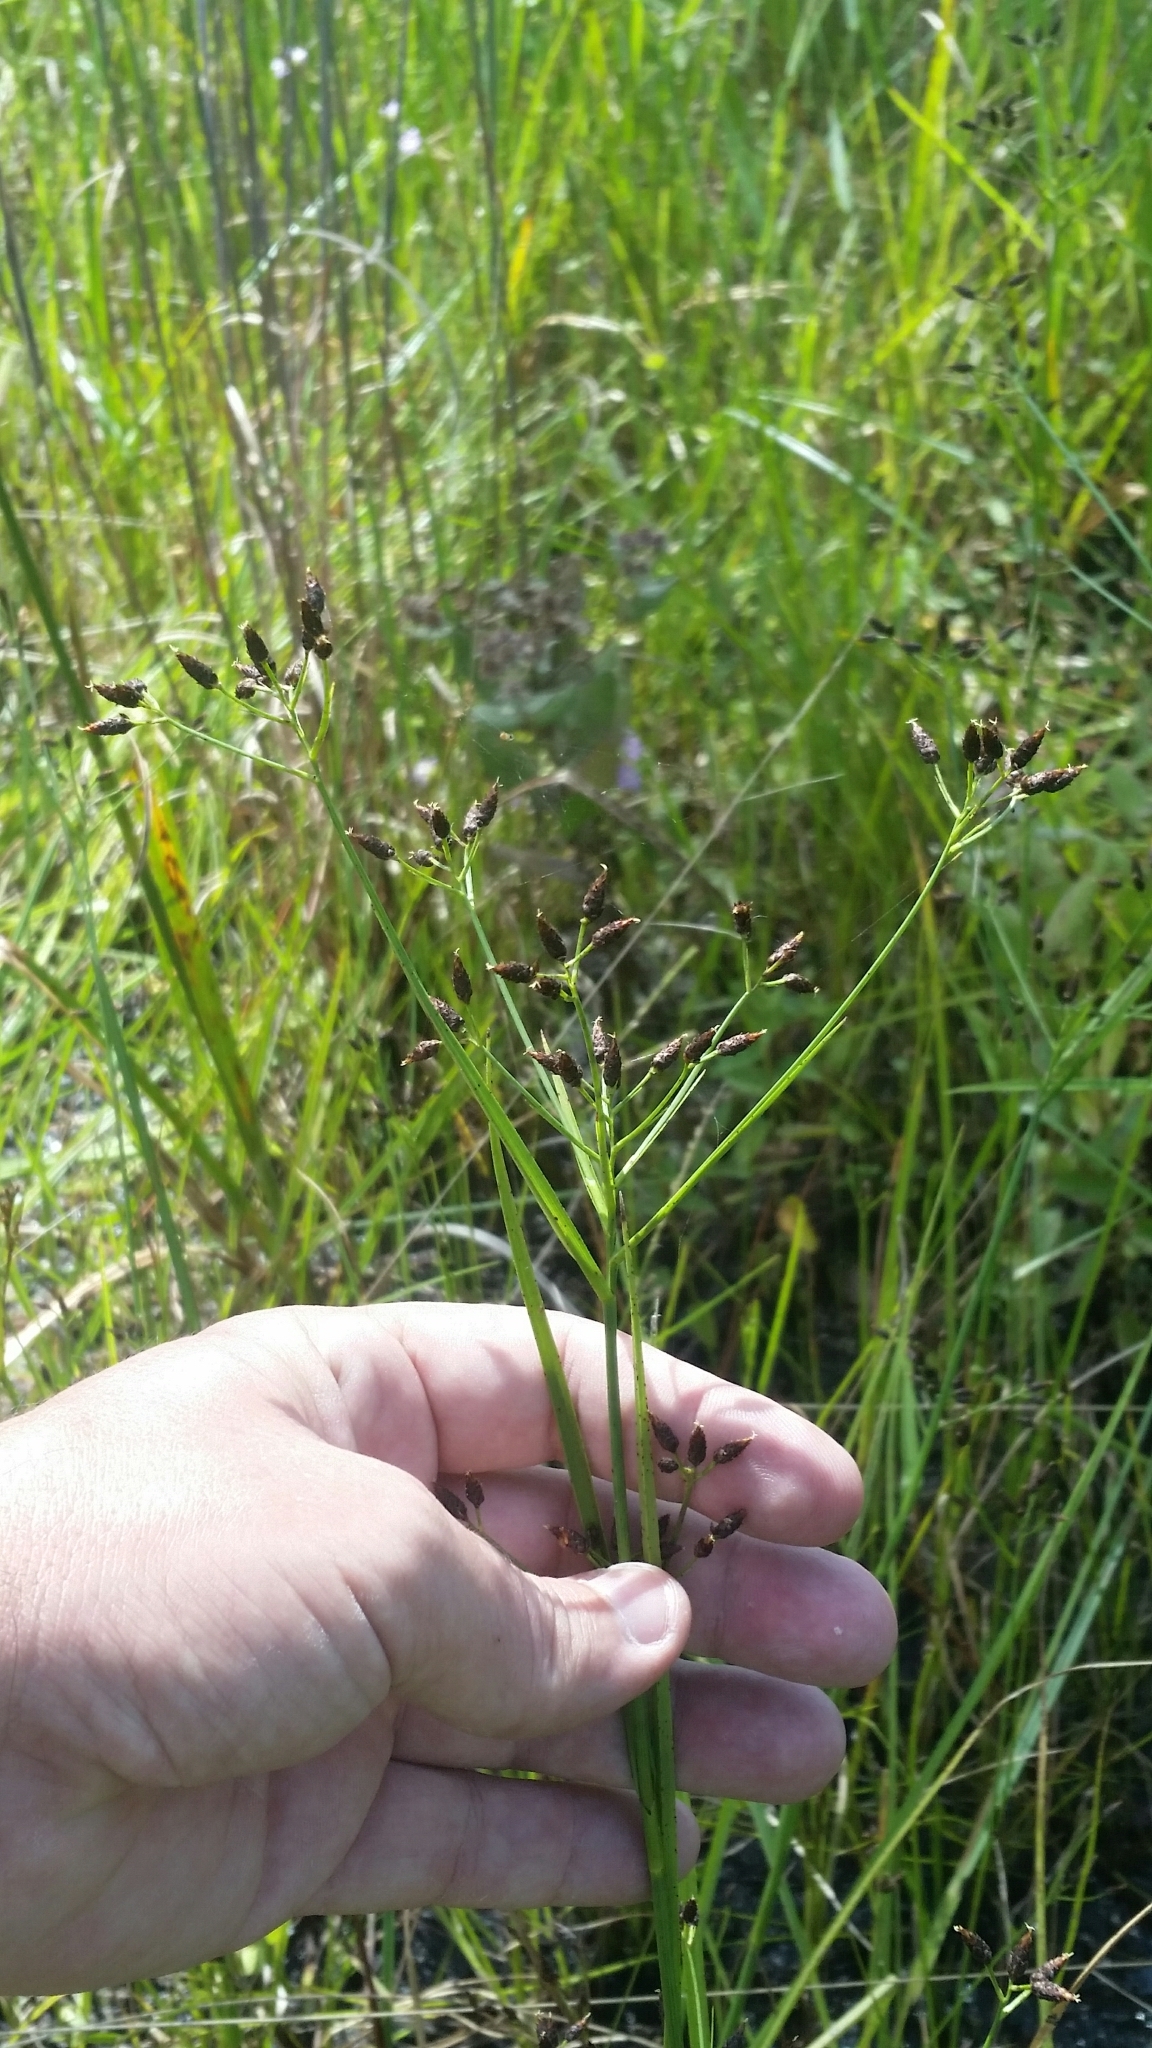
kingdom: Plantae
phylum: Tracheophyta
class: Liliopsida
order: Poales
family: Cyperaceae
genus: Rhynchospora
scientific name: Rhynchospora nitens
